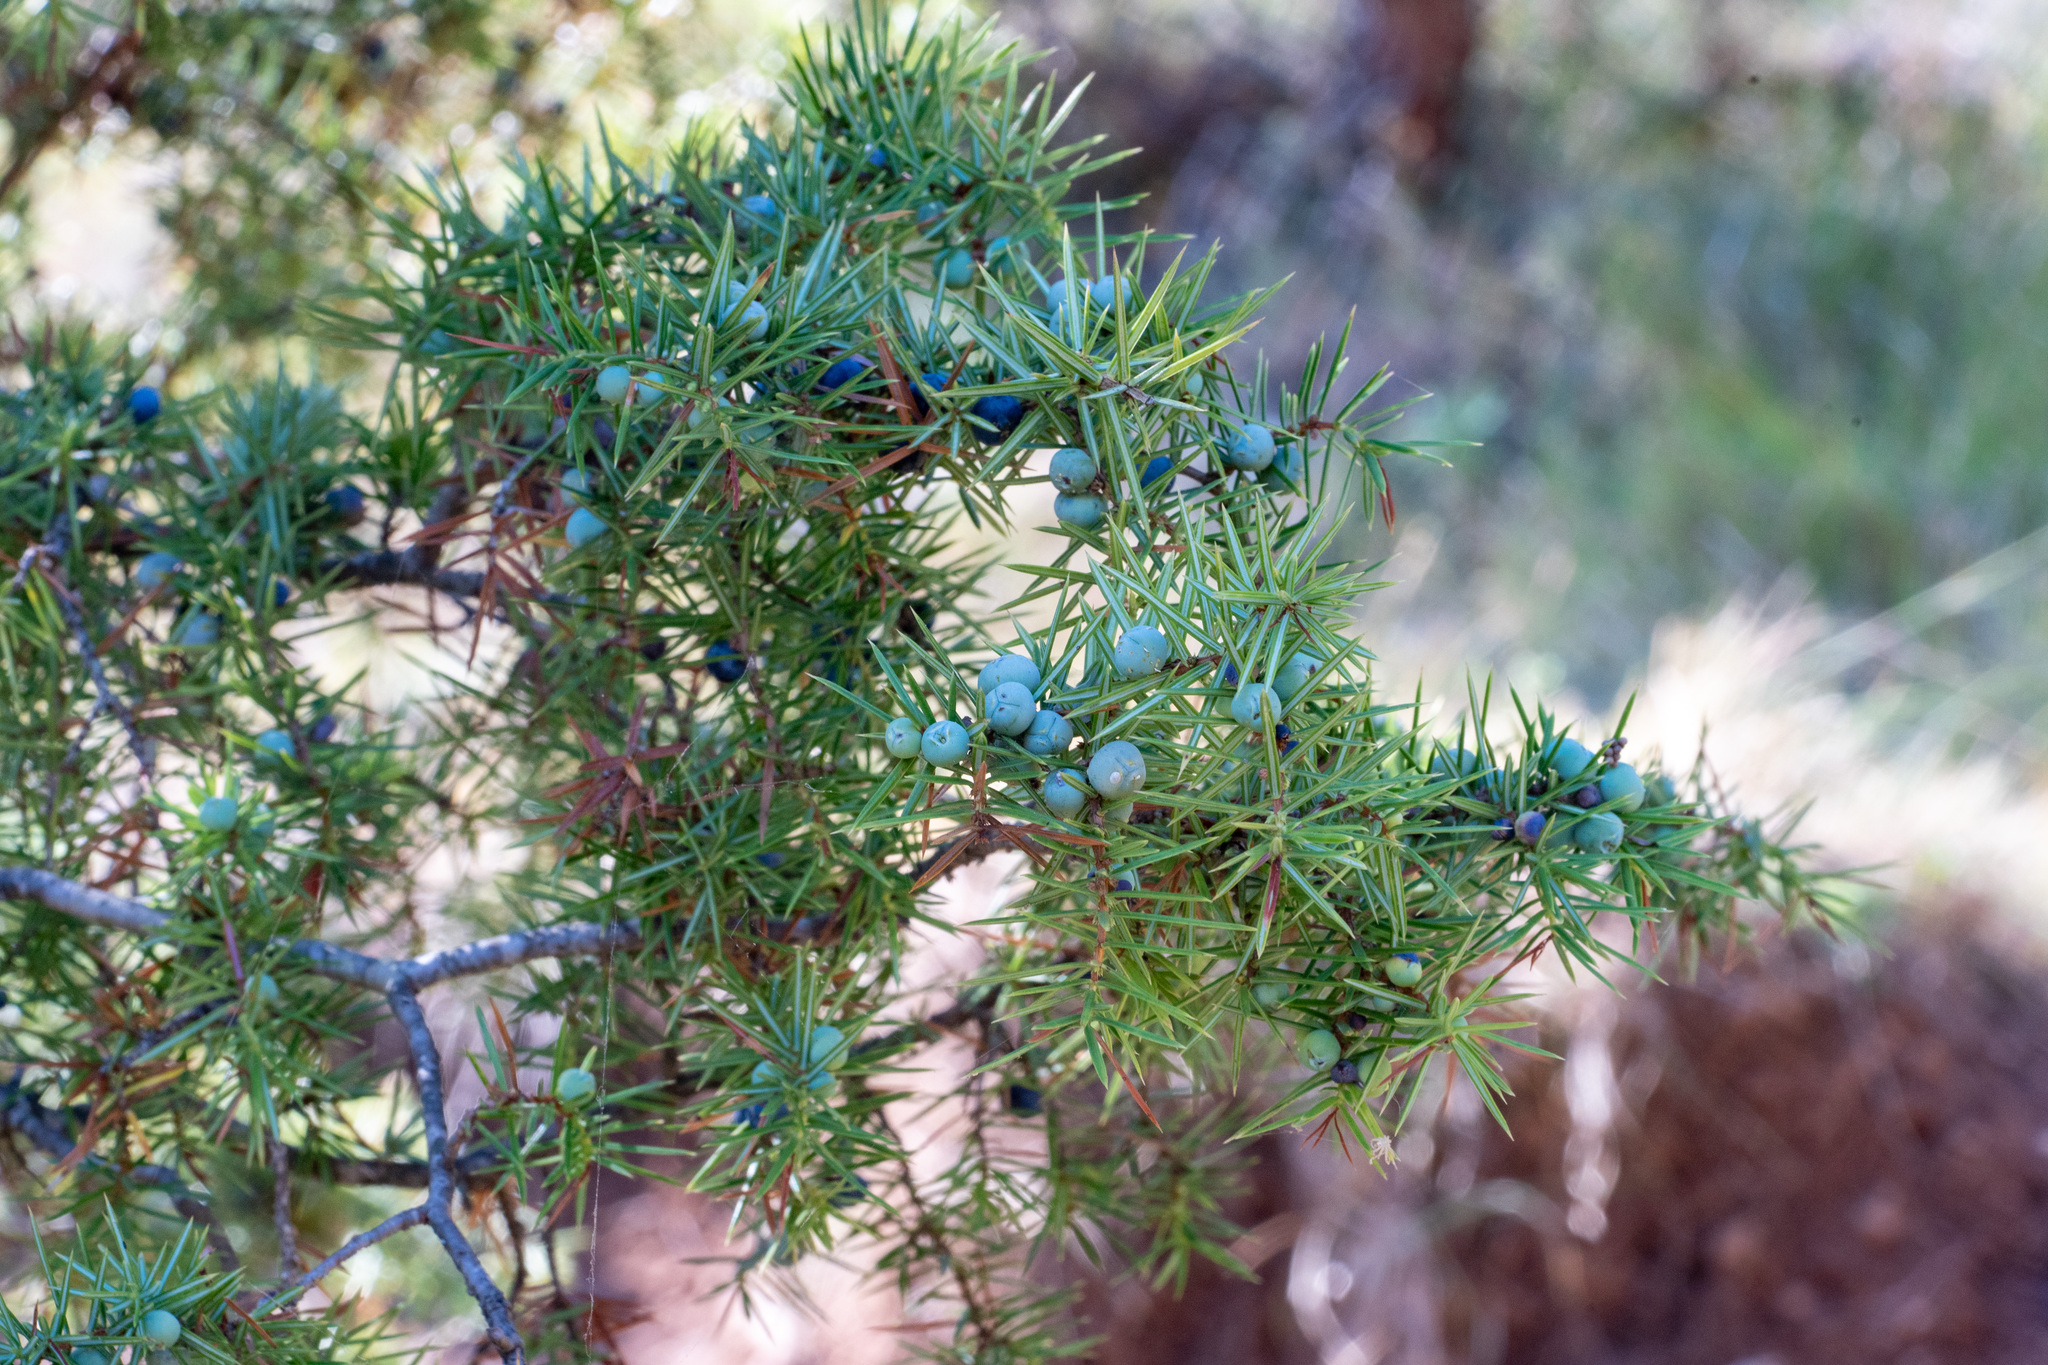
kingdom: Plantae
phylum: Tracheophyta
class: Pinopsida
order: Pinales
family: Cupressaceae
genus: Juniperus
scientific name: Juniperus communis
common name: Common juniper
